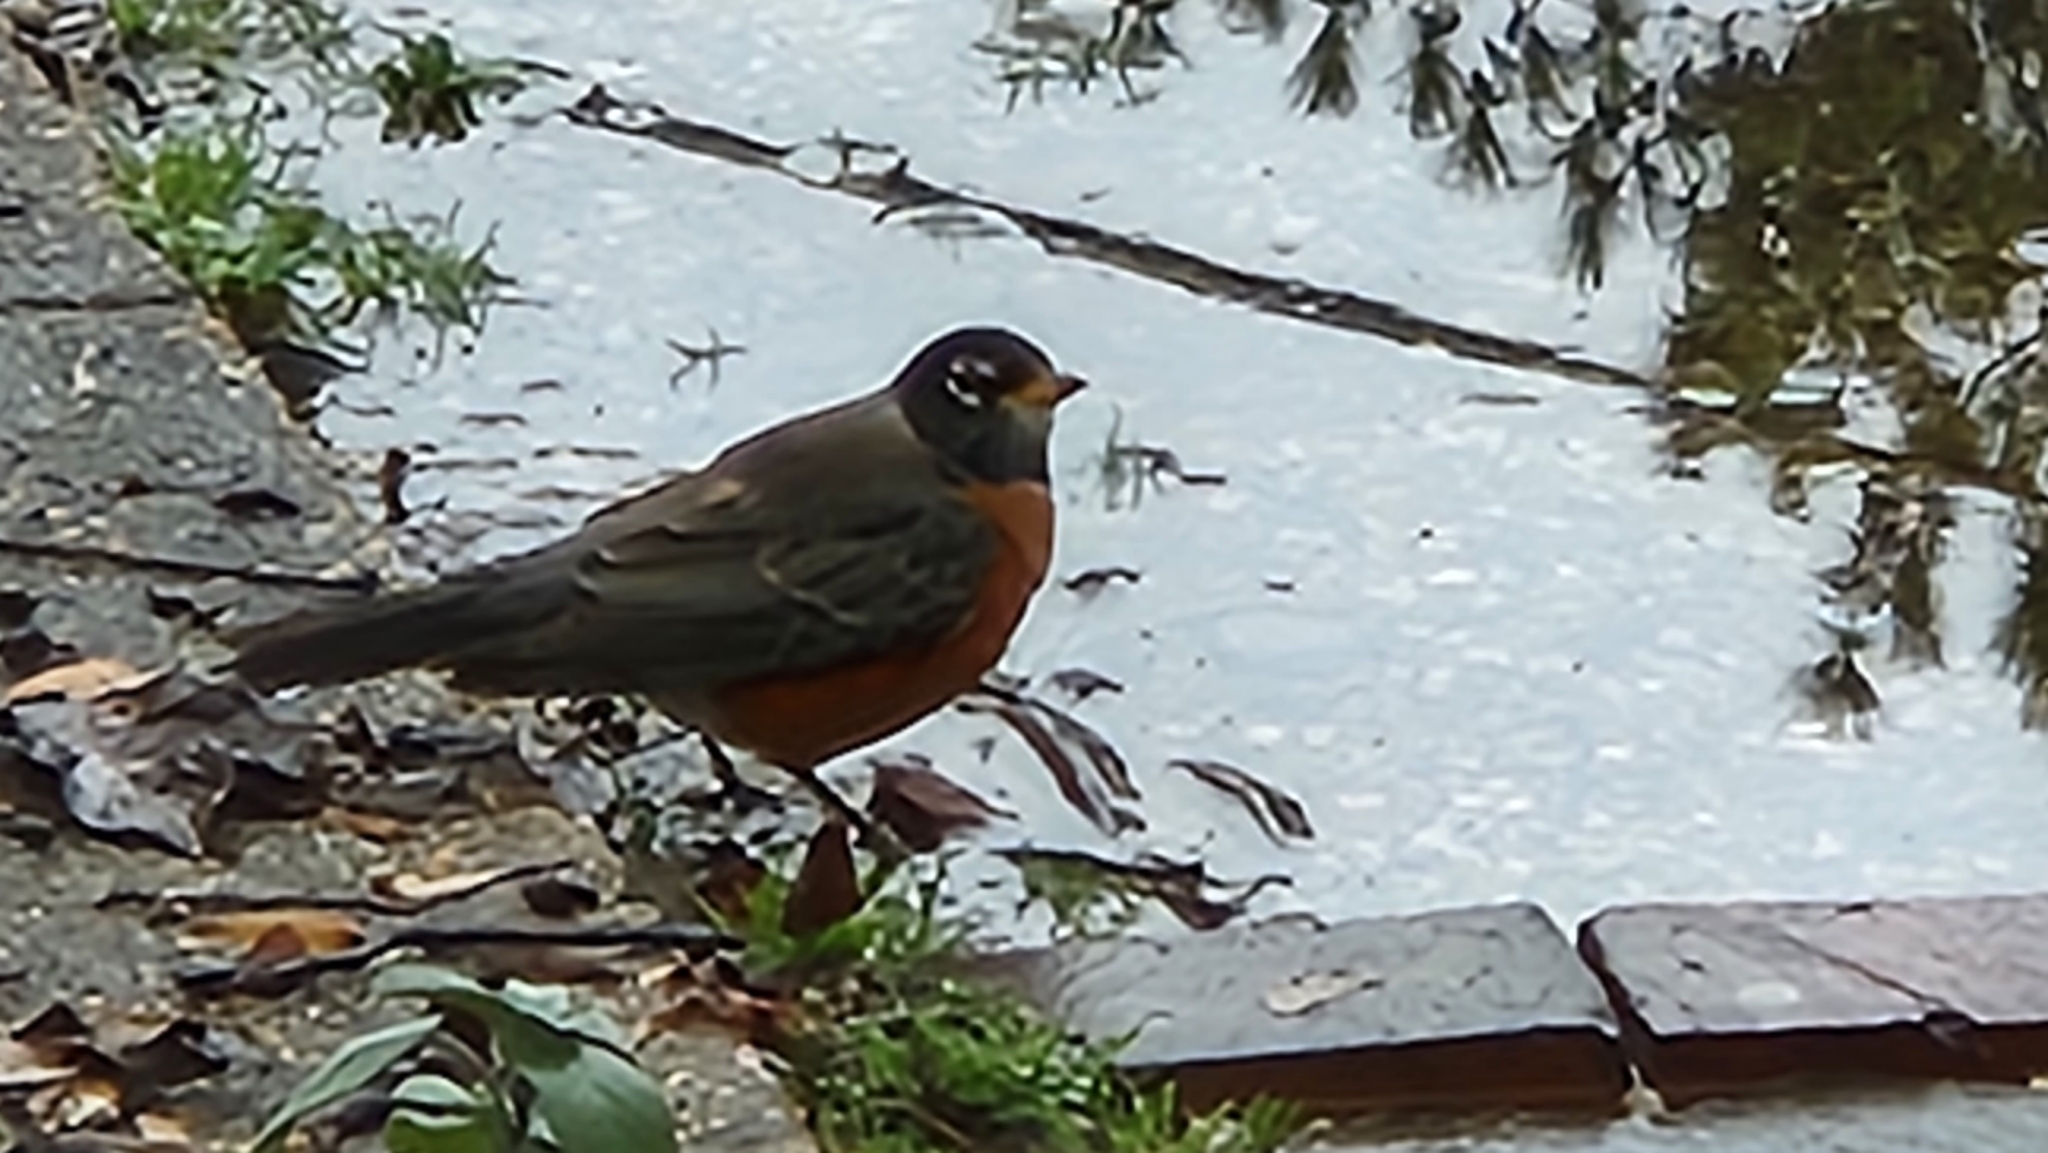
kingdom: Animalia
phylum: Chordata
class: Aves
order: Passeriformes
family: Turdidae
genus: Turdus
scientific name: Turdus migratorius
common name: American robin
